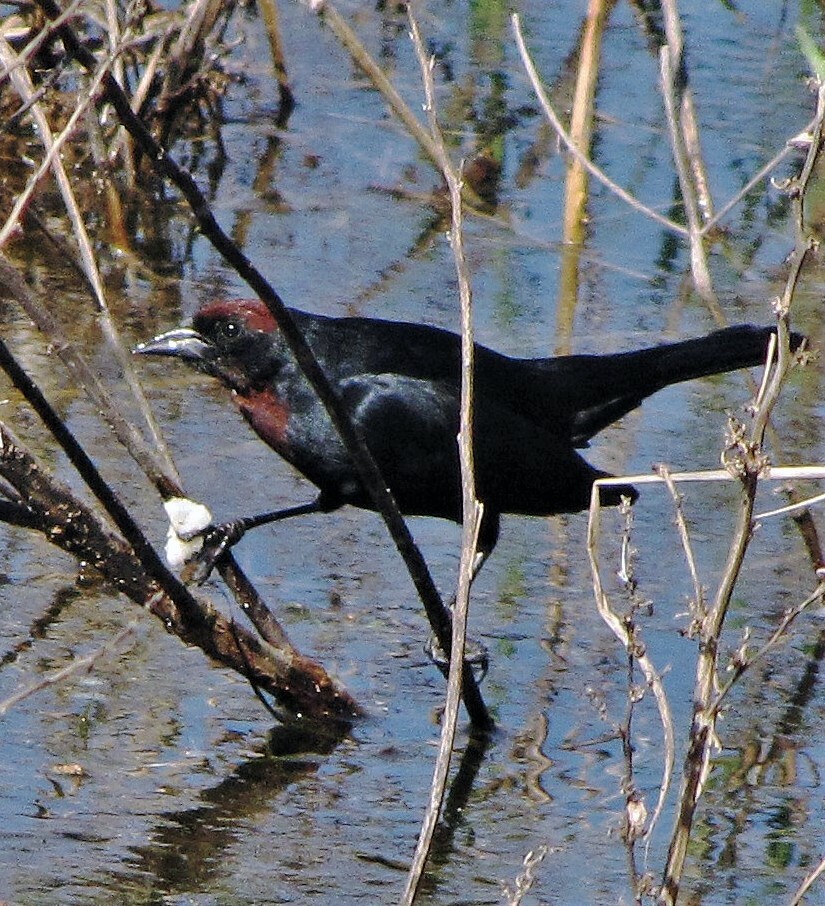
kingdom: Animalia
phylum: Chordata
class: Aves
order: Passeriformes
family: Icteridae
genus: Chrysomus
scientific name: Chrysomus ruficapillus
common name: Chestnut-capped blackbird
